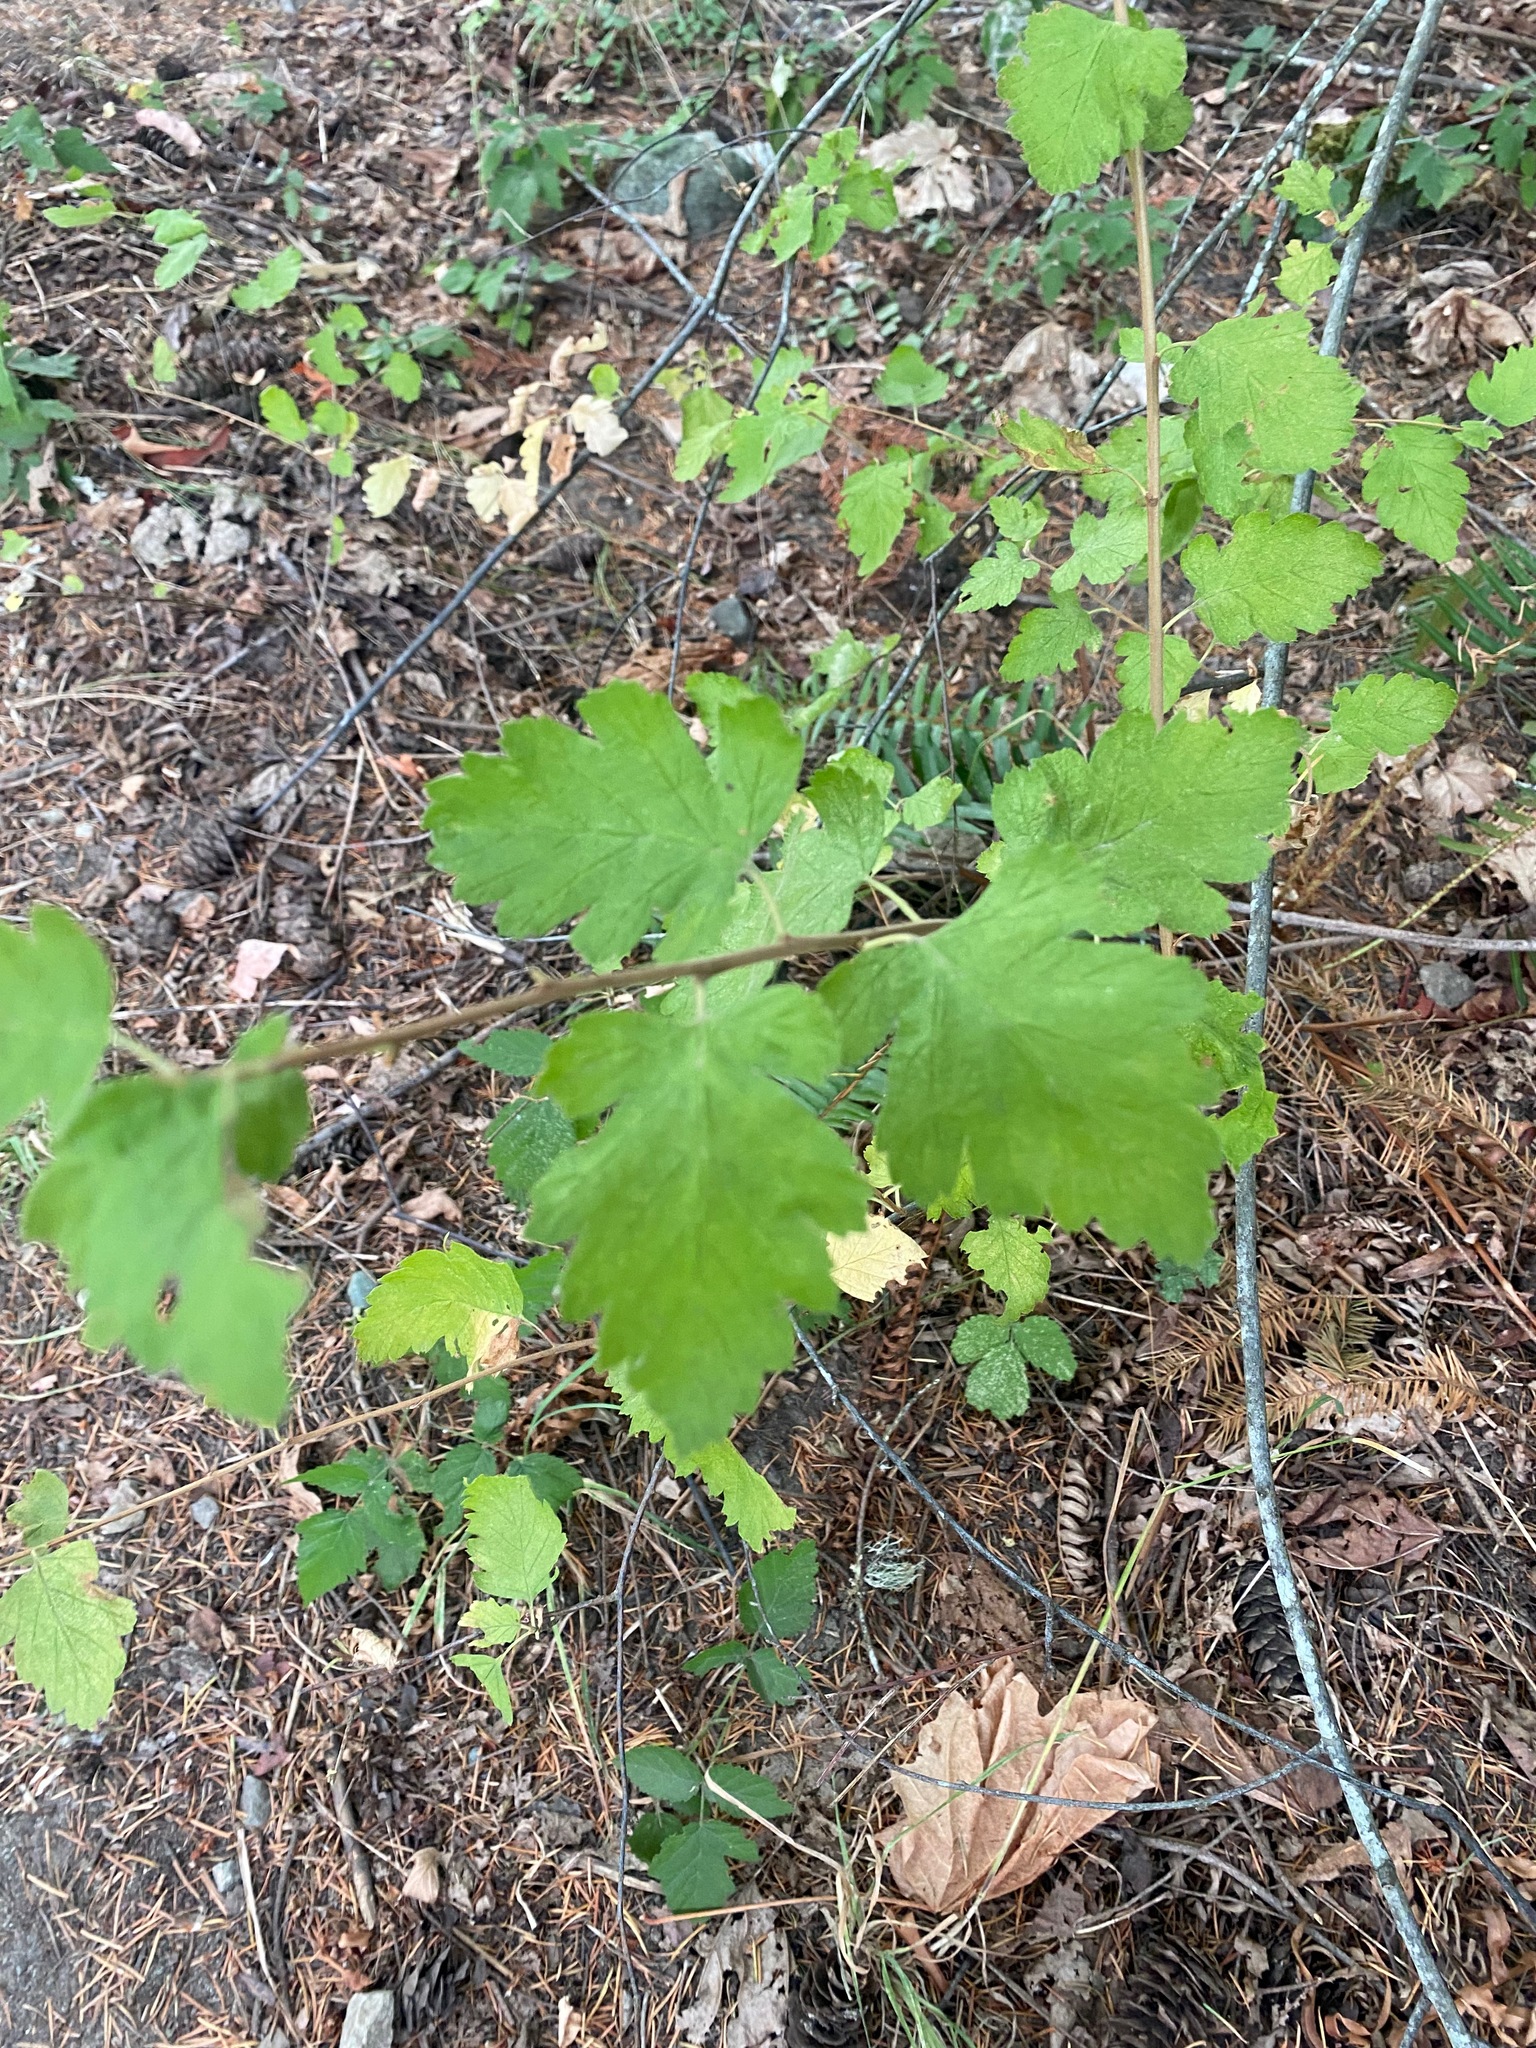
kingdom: Plantae
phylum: Tracheophyta
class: Magnoliopsida
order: Rosales
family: Rosaceae
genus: Holodiscus
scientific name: Holodiscus discolor
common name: Oceanspray
